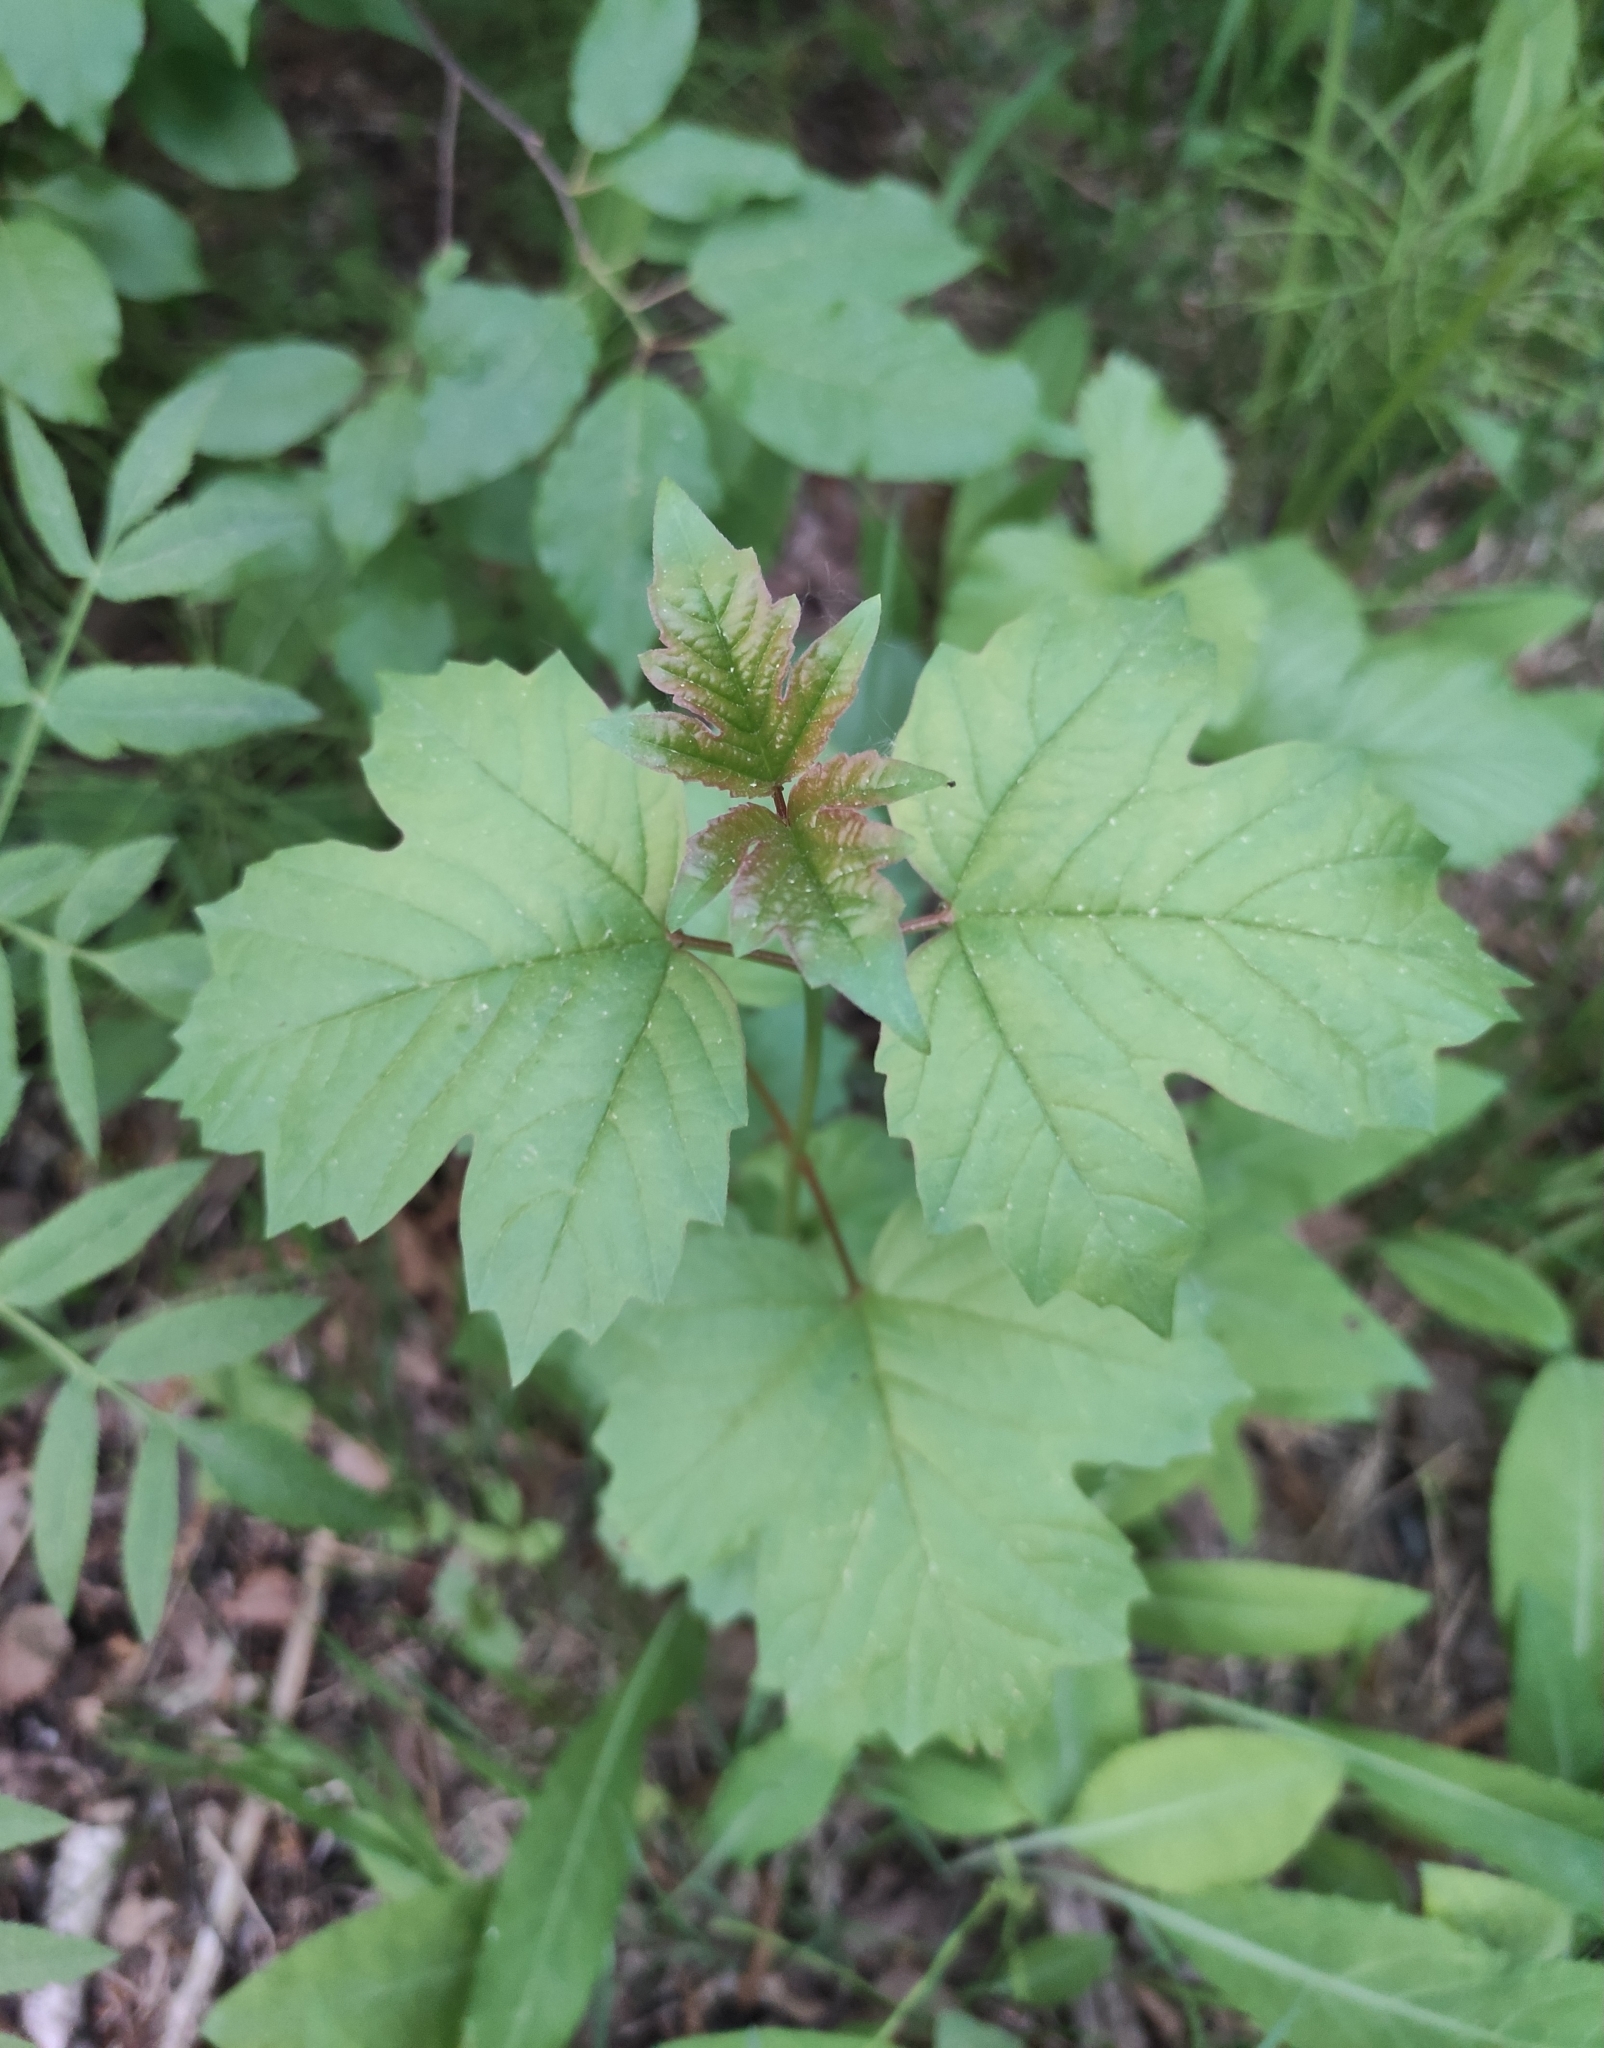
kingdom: Plantae
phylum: Tracheophyta
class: Magnoliopsida
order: Dipsacales
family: Viburnaceae
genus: Viburnum
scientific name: Viburnum opulus
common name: Guelder-rose
